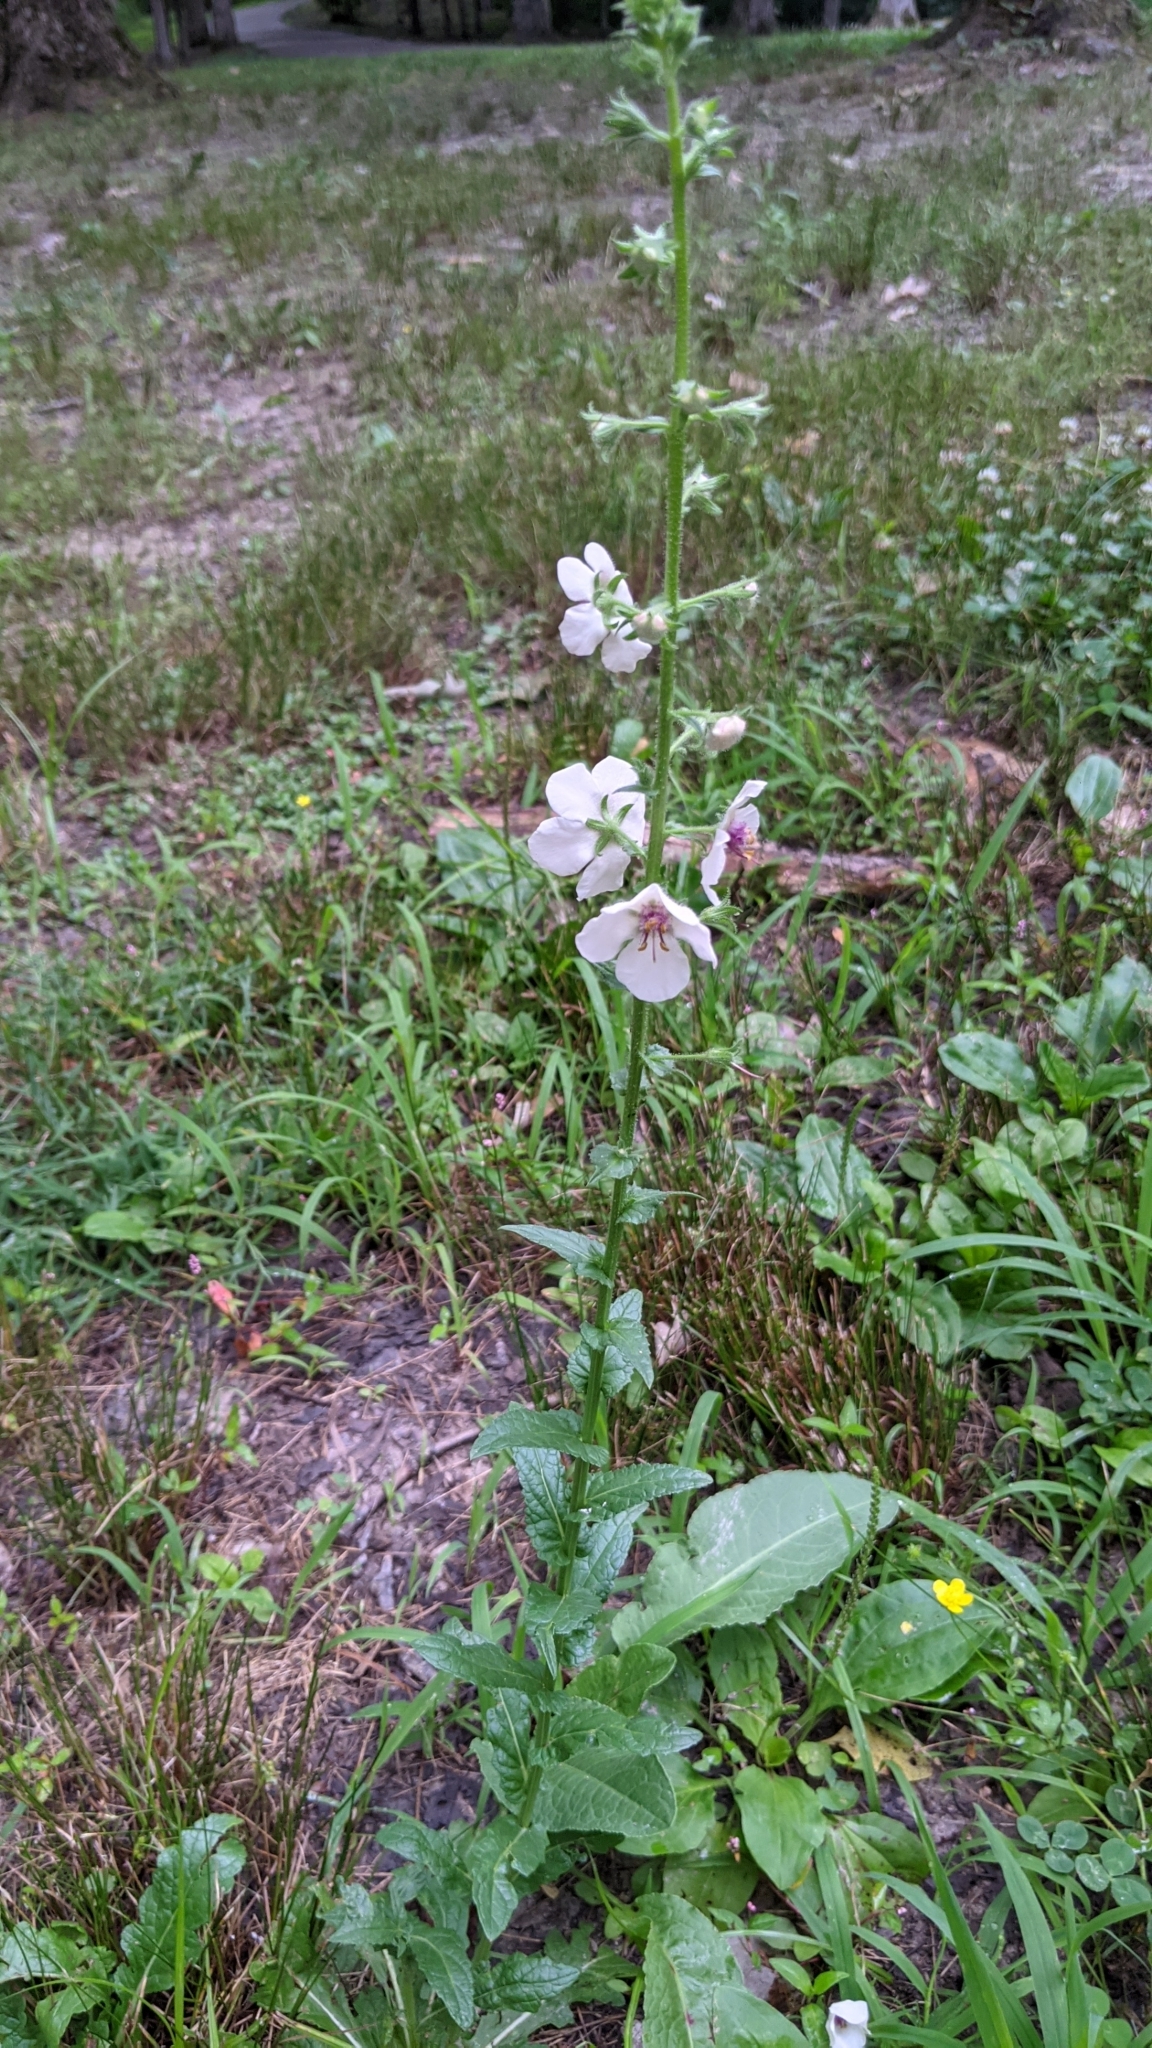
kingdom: Plantae
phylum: Tracheophyta
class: Magnoliopsida
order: Lamiales
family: Scrophulariaceae
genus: Verbascum
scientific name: Verbascum blattaria
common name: Moth mullein
